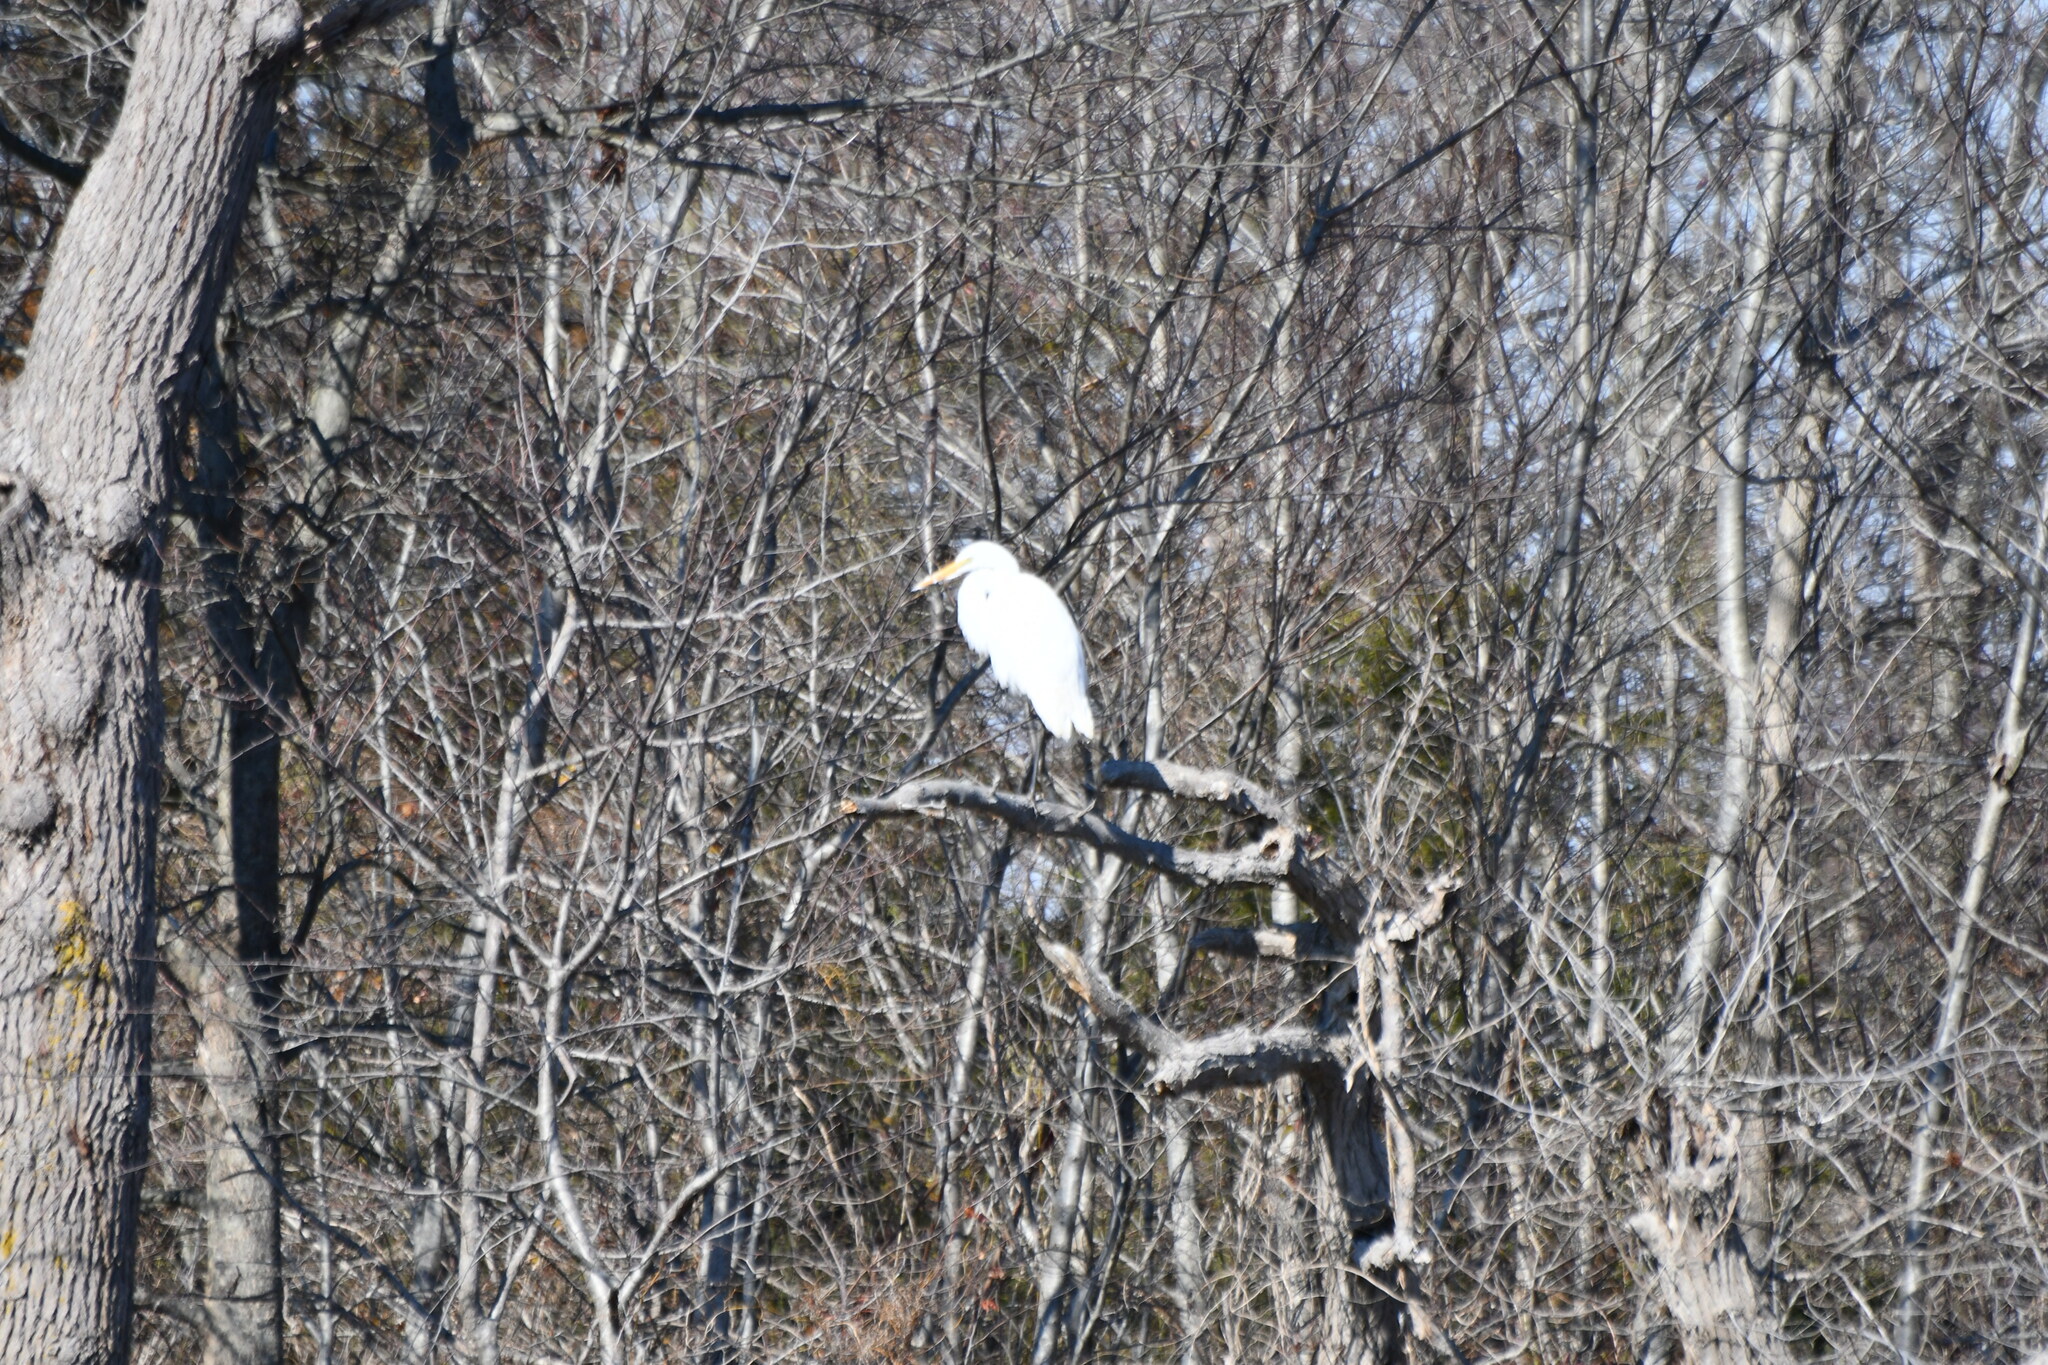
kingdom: Animalia
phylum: Chordata
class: Aves
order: Pelecaniformes
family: Ardeidae
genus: Ardea
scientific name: Ardea alba
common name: Great egret
